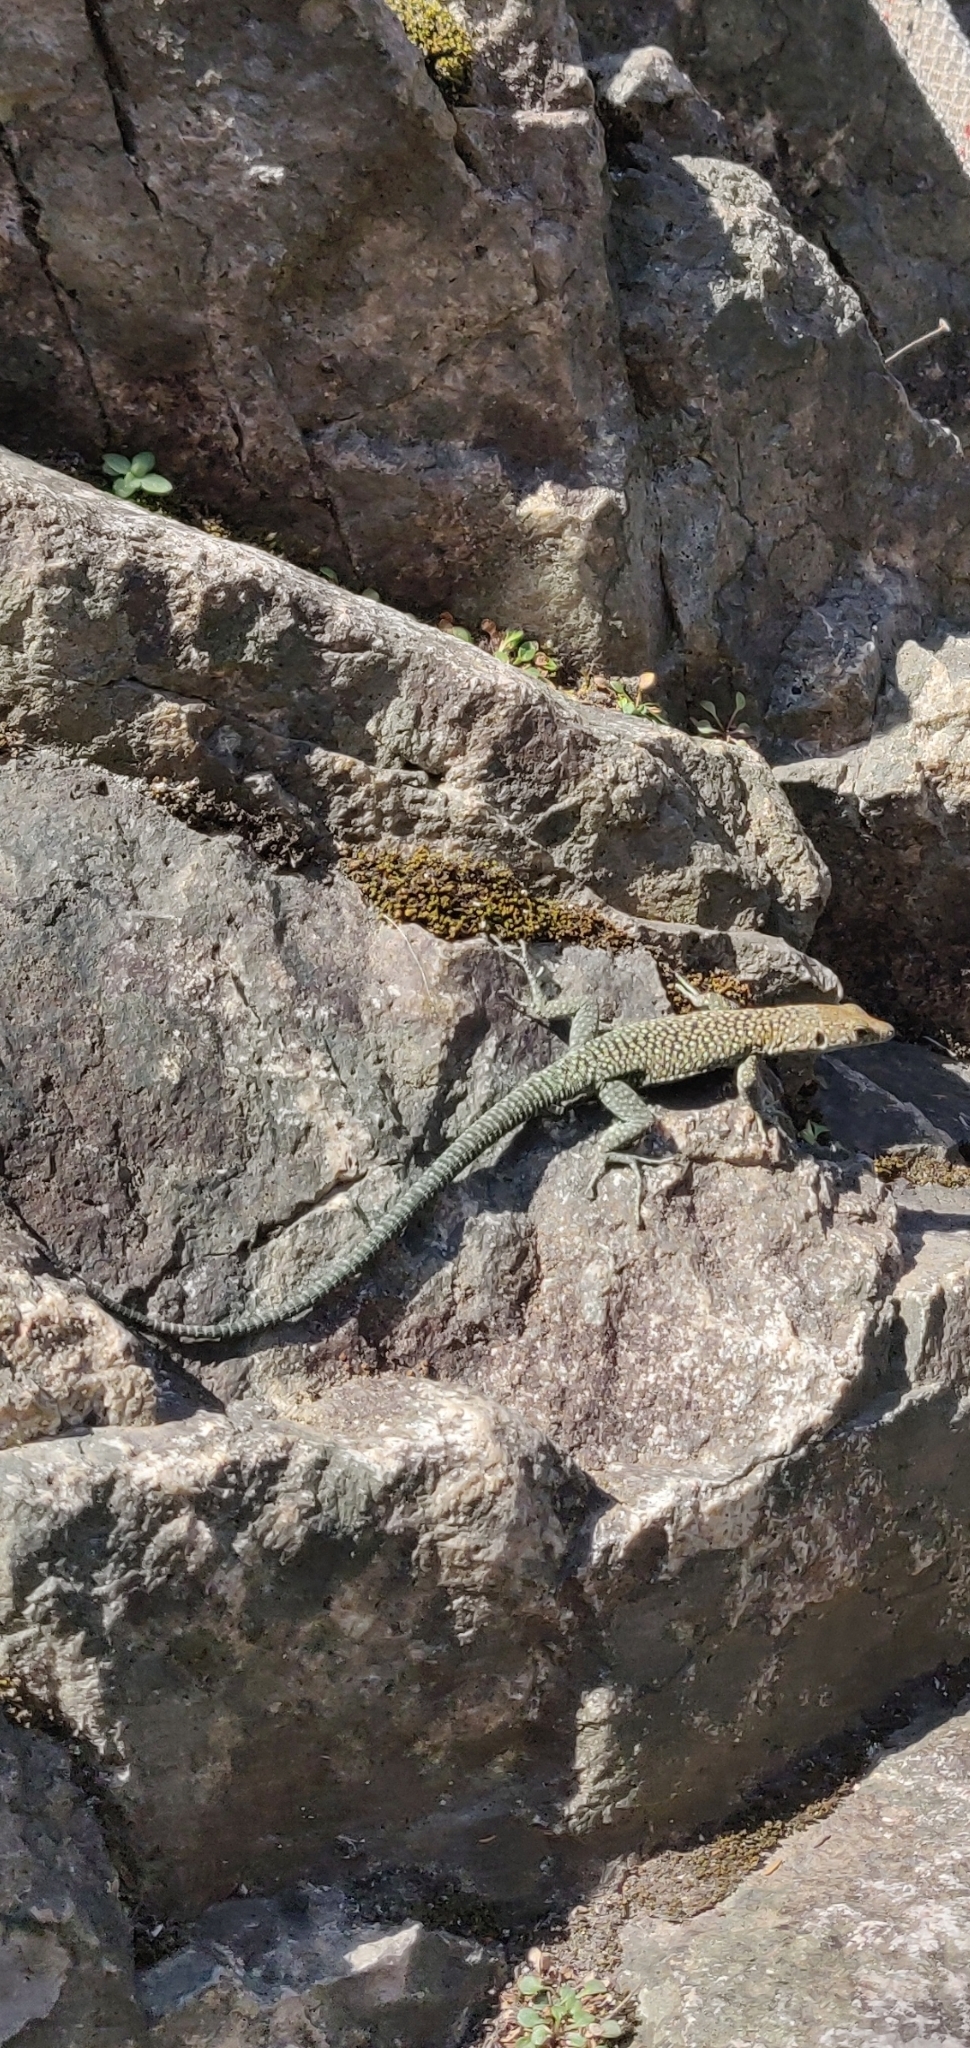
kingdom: Animalia
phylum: Chordata
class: Squamata
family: Lacertidae
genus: Archaeolacerta
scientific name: Archaeolacerta bedriagae
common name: Bedriaga's rock lizard
